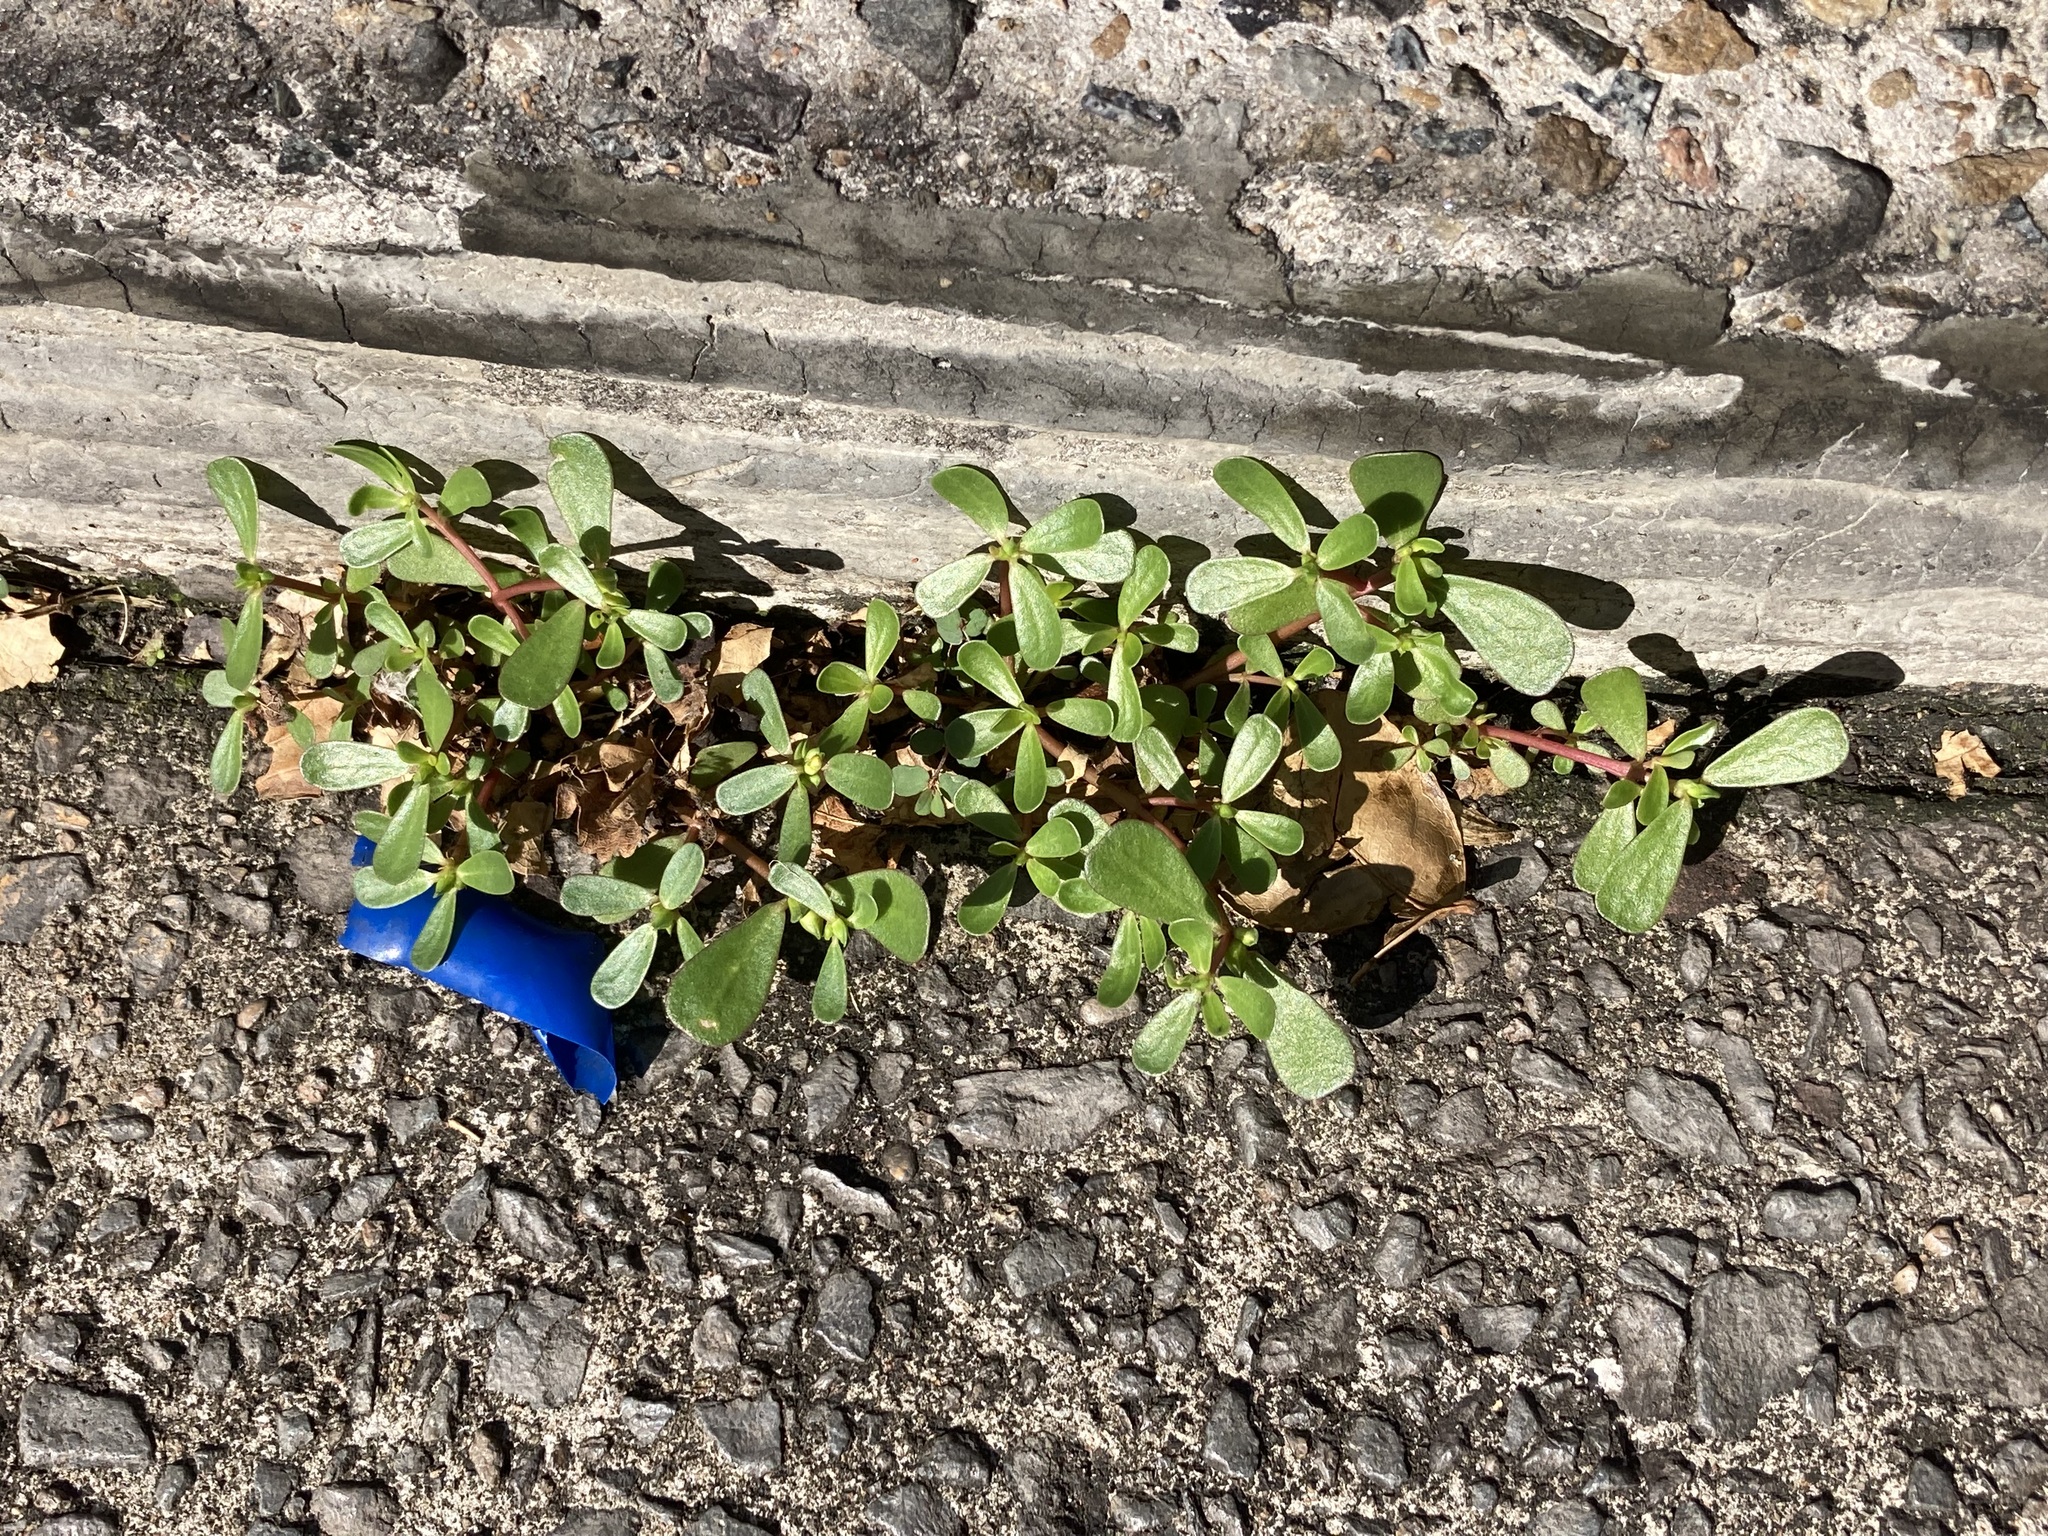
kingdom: Plantae
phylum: Tracheophyta
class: Magnoliopsida
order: Caryophyllales
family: Portulacaceae
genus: Portulaca
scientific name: Portulaca oleracea
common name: Common purslane
